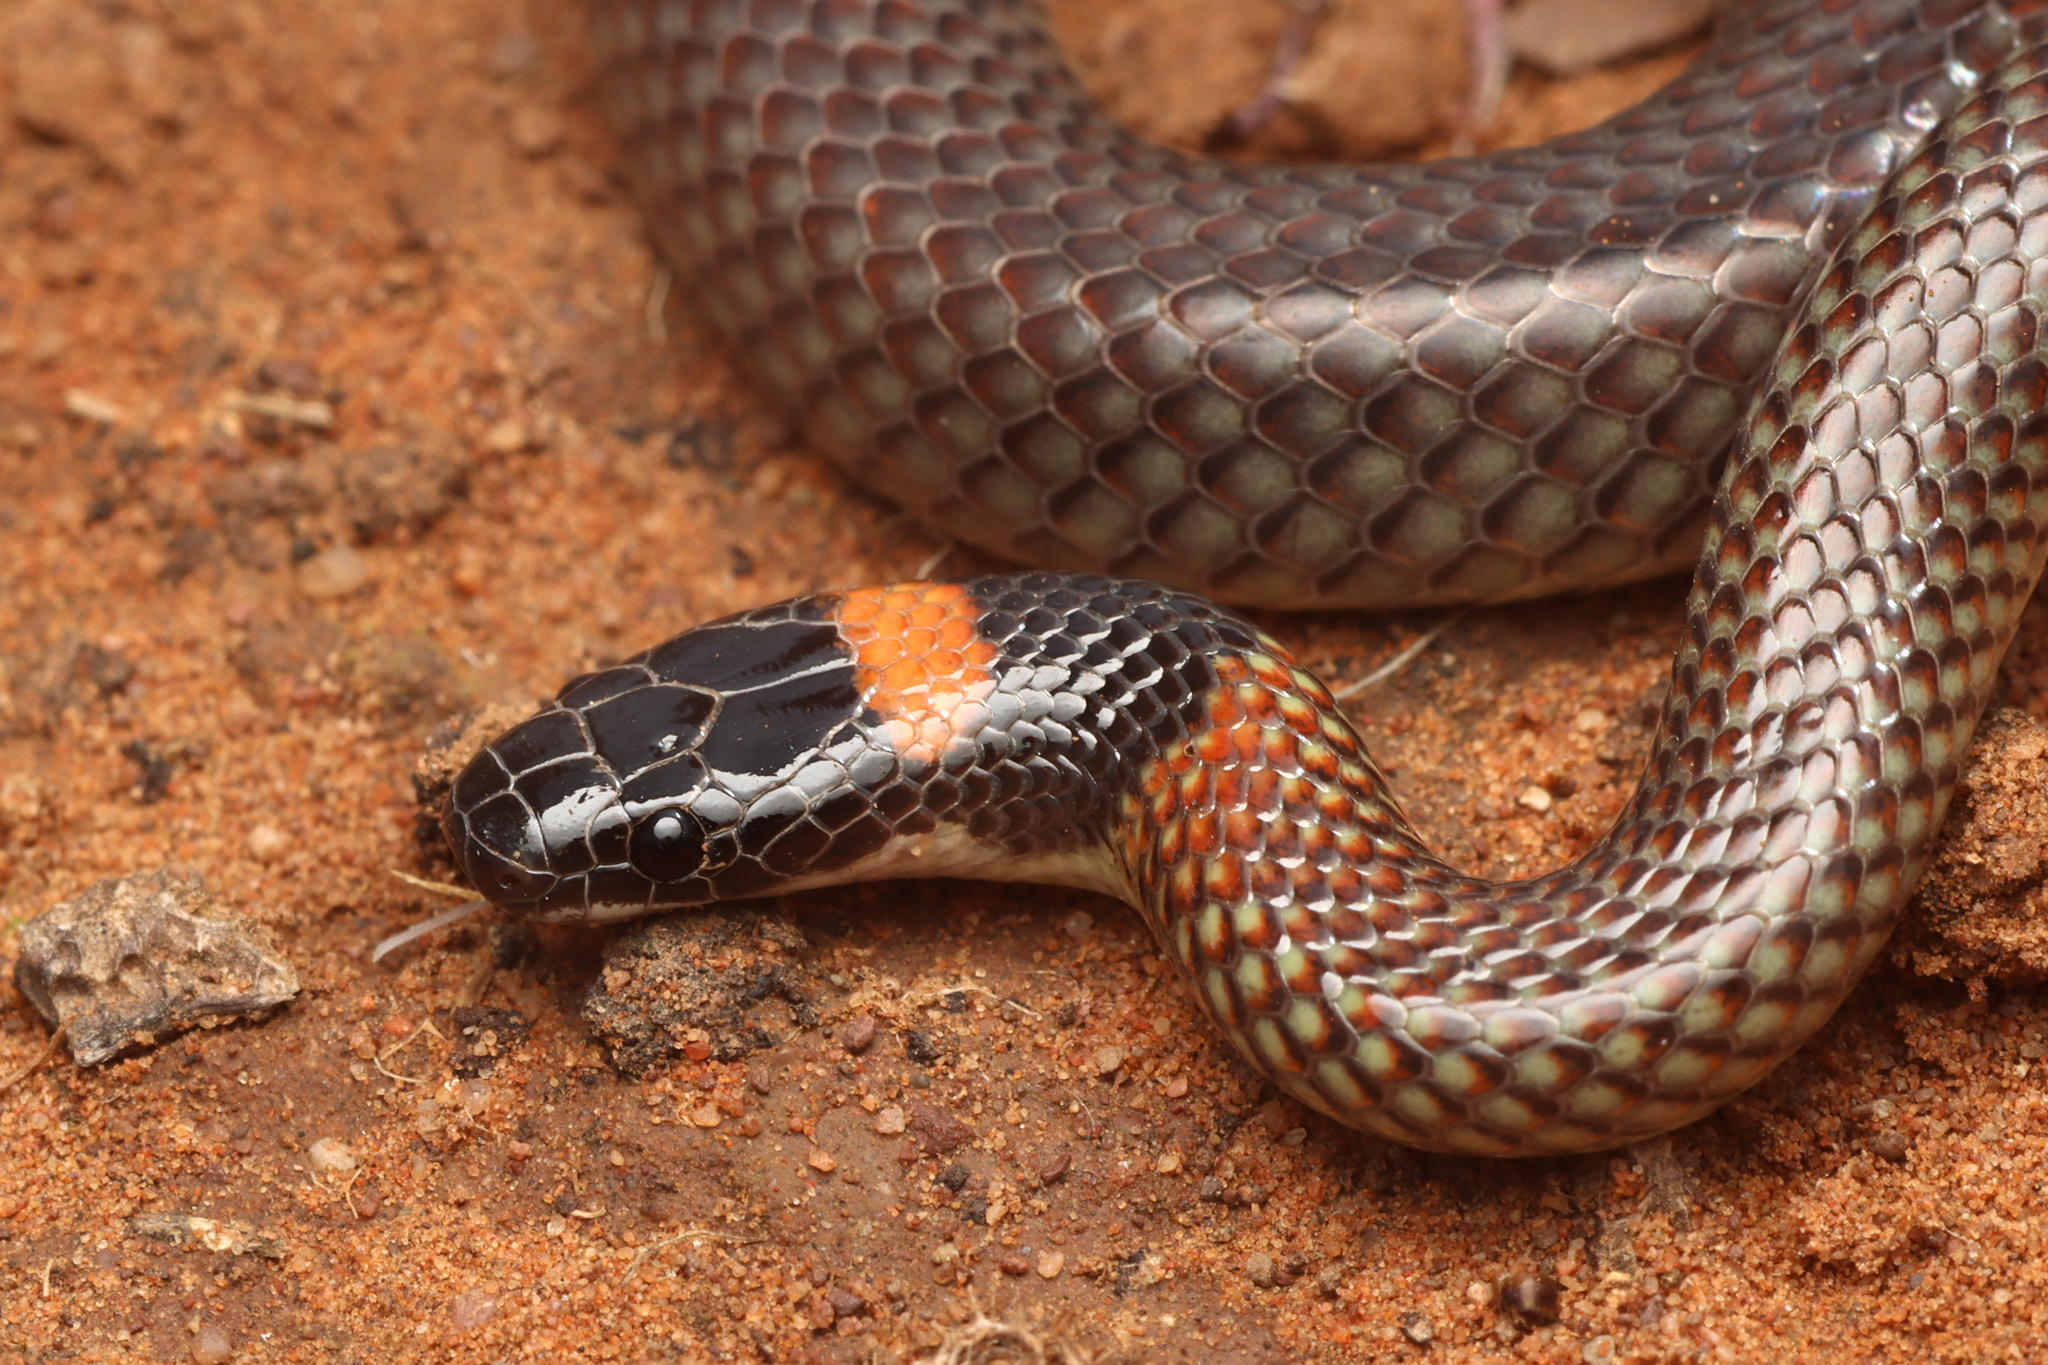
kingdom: Animalia
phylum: Chordata
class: Squamata
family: Elapidae
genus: Furina
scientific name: Furina diadema
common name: Red-naped snake
